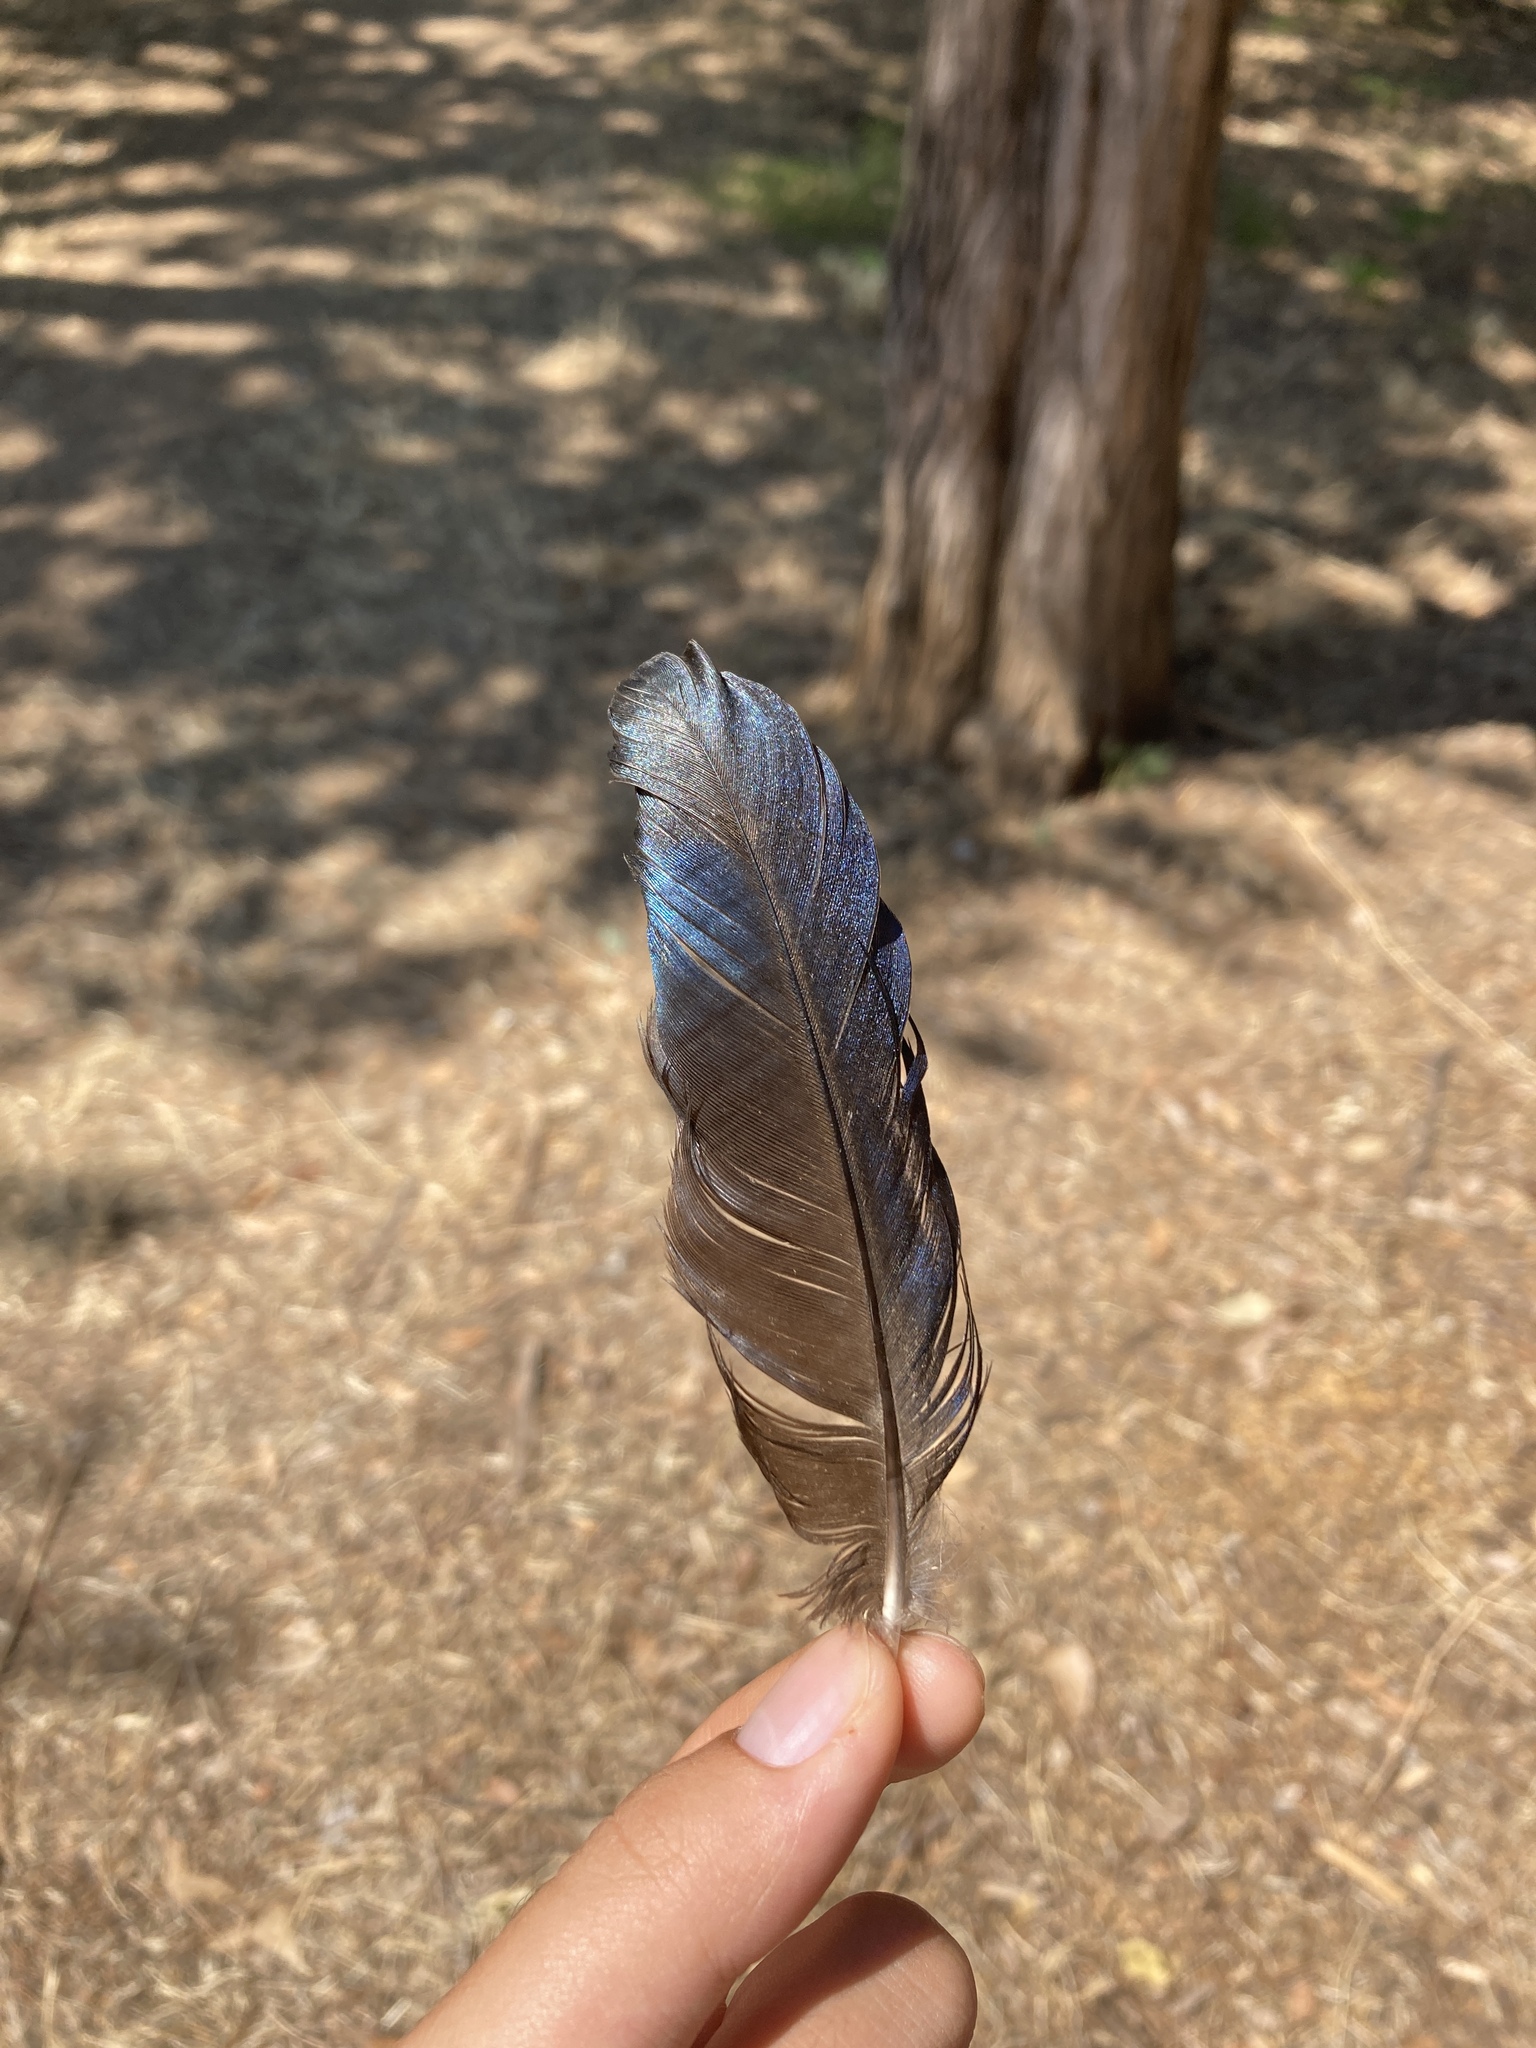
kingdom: Animalia
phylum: Chordata
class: Aves
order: Passeriformes
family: Corvidae
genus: Pica
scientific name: Pica pica
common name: Eurasian magpie
